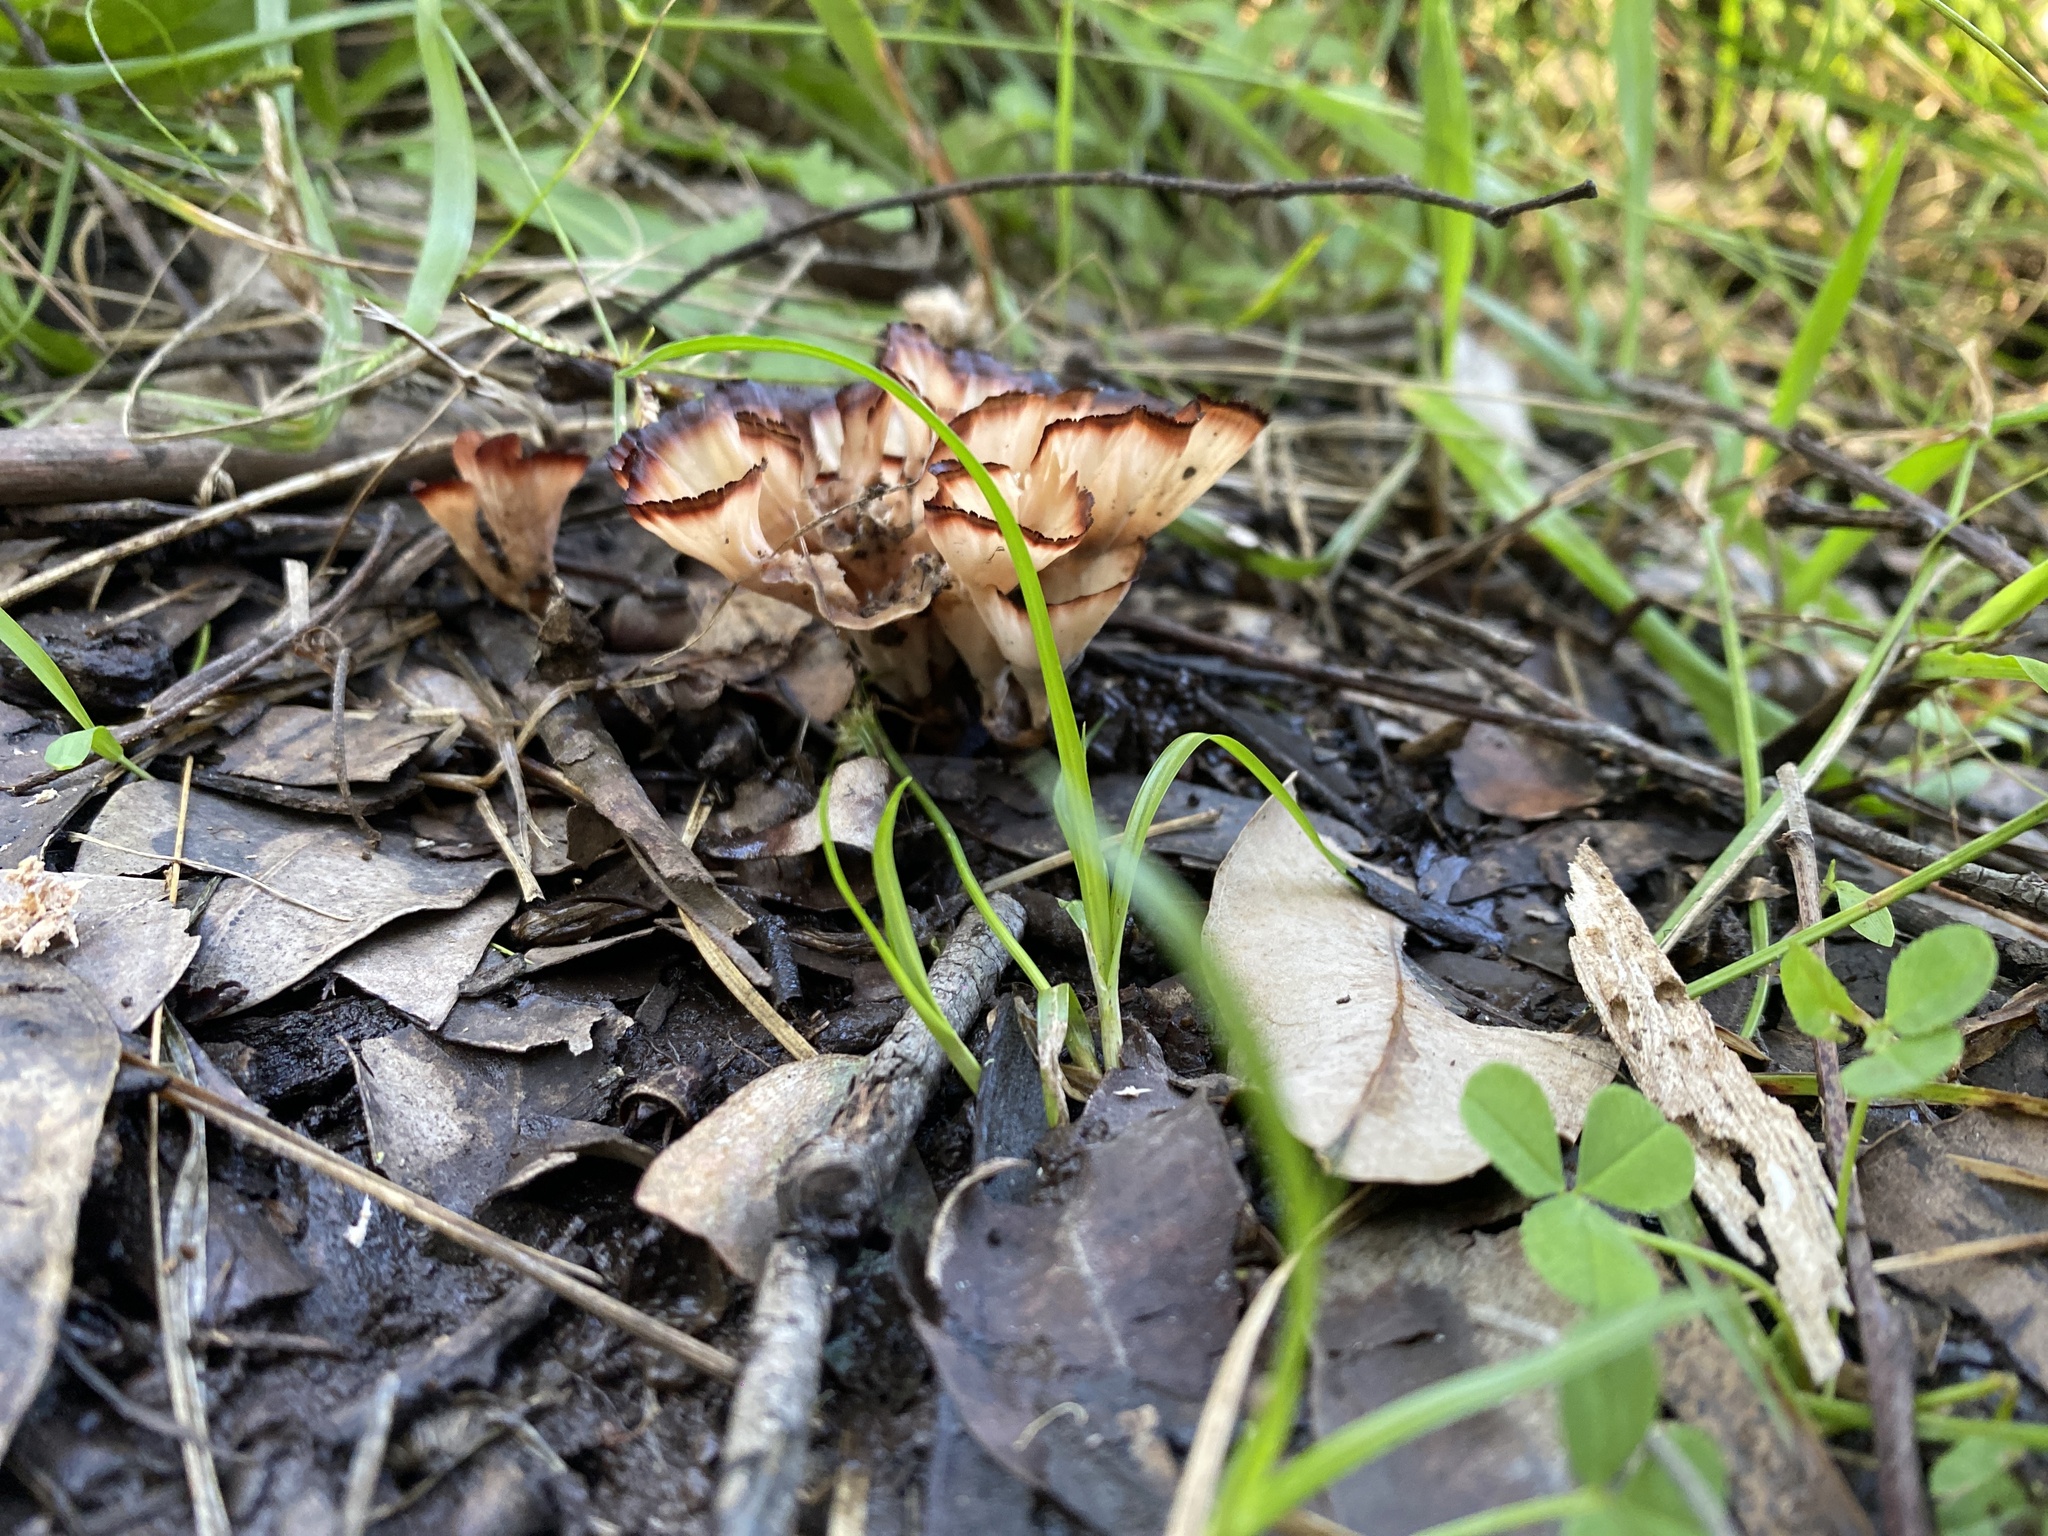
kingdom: Fungi
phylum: Basidiomycota
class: Agaricomycetes
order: Polyporales
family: Podoscyphaceae
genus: Podoscypha
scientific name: Podoscypha petalodes
